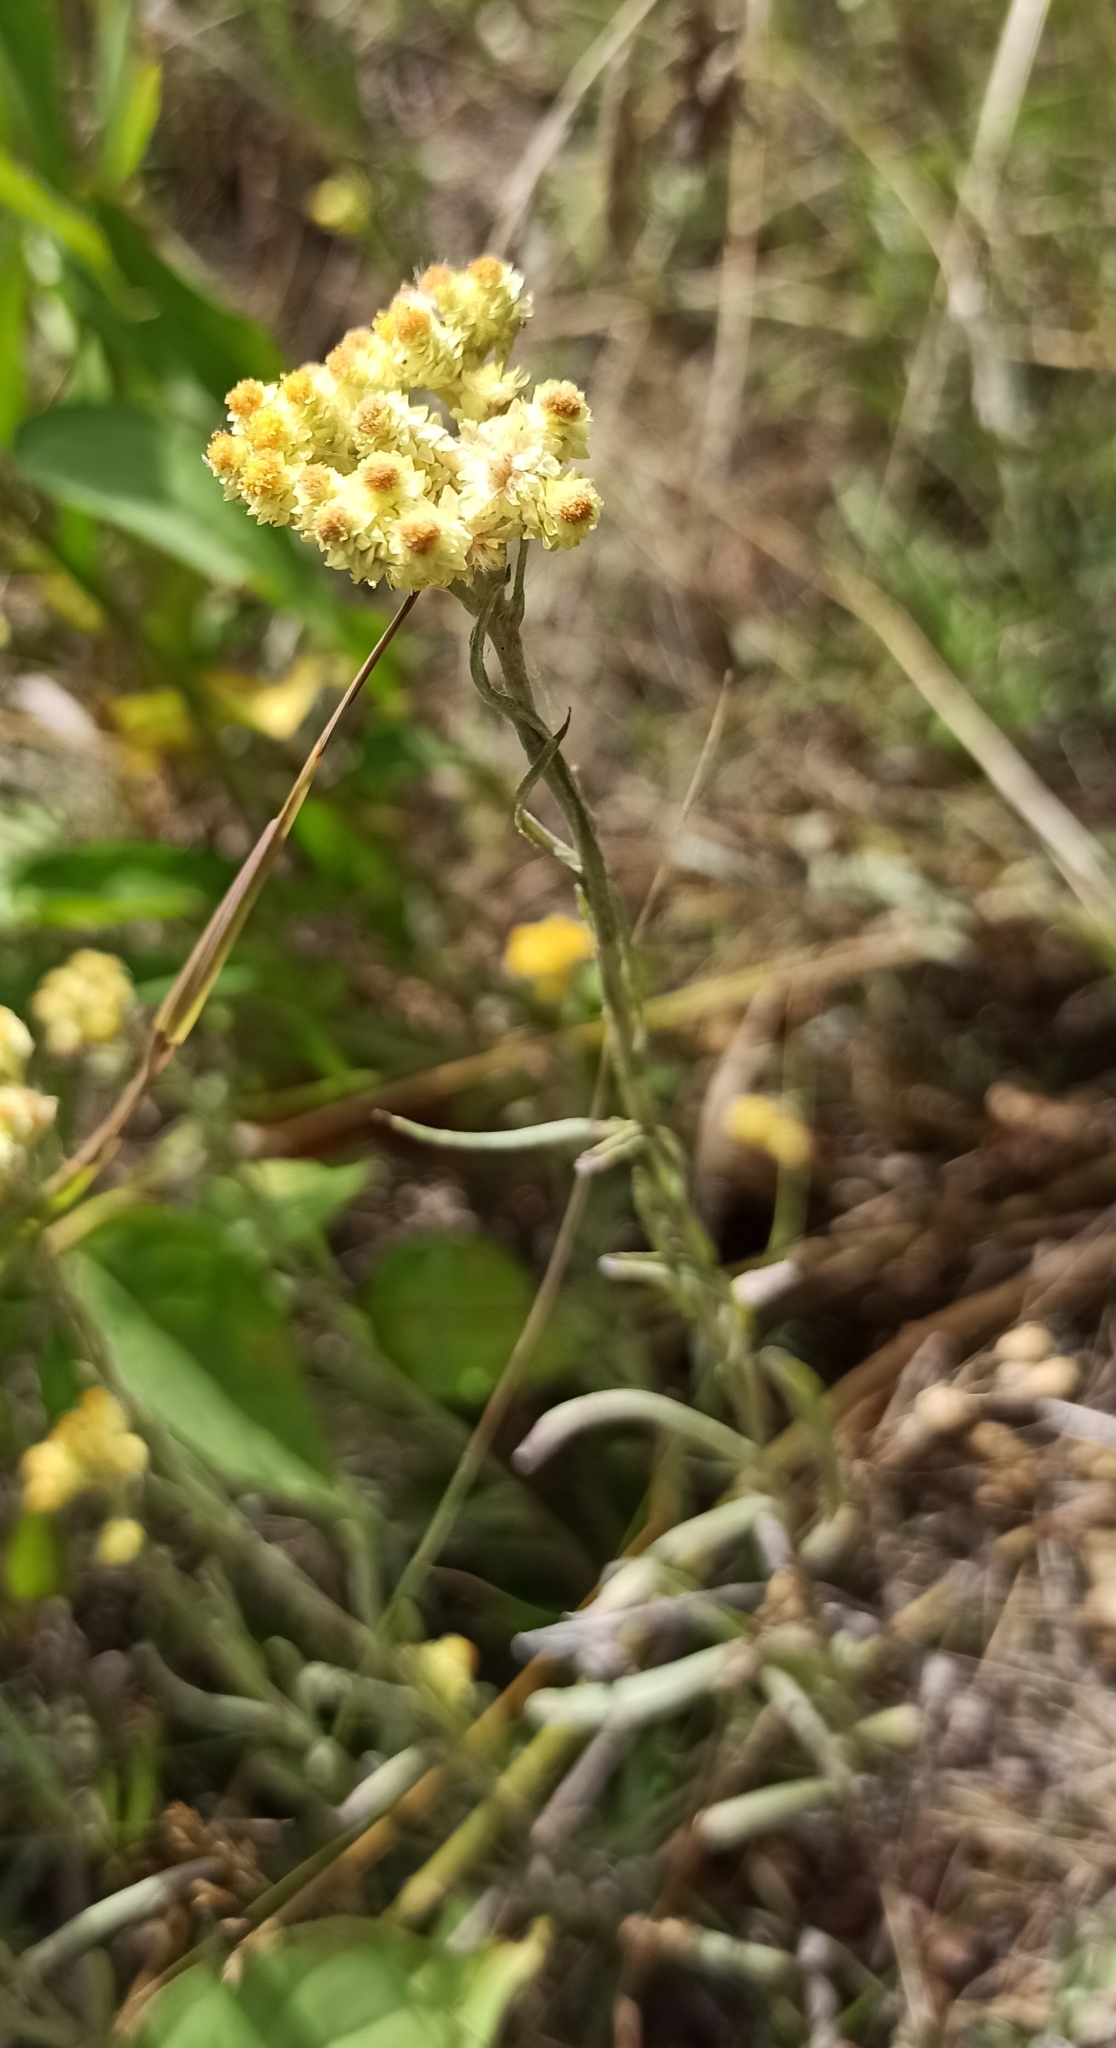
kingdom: Plantae
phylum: Tracheophyta
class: Magnoliopsida
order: Asterales
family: Asteraceae
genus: Helichrysum
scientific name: Helichrysum arenarium
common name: Strawflower
